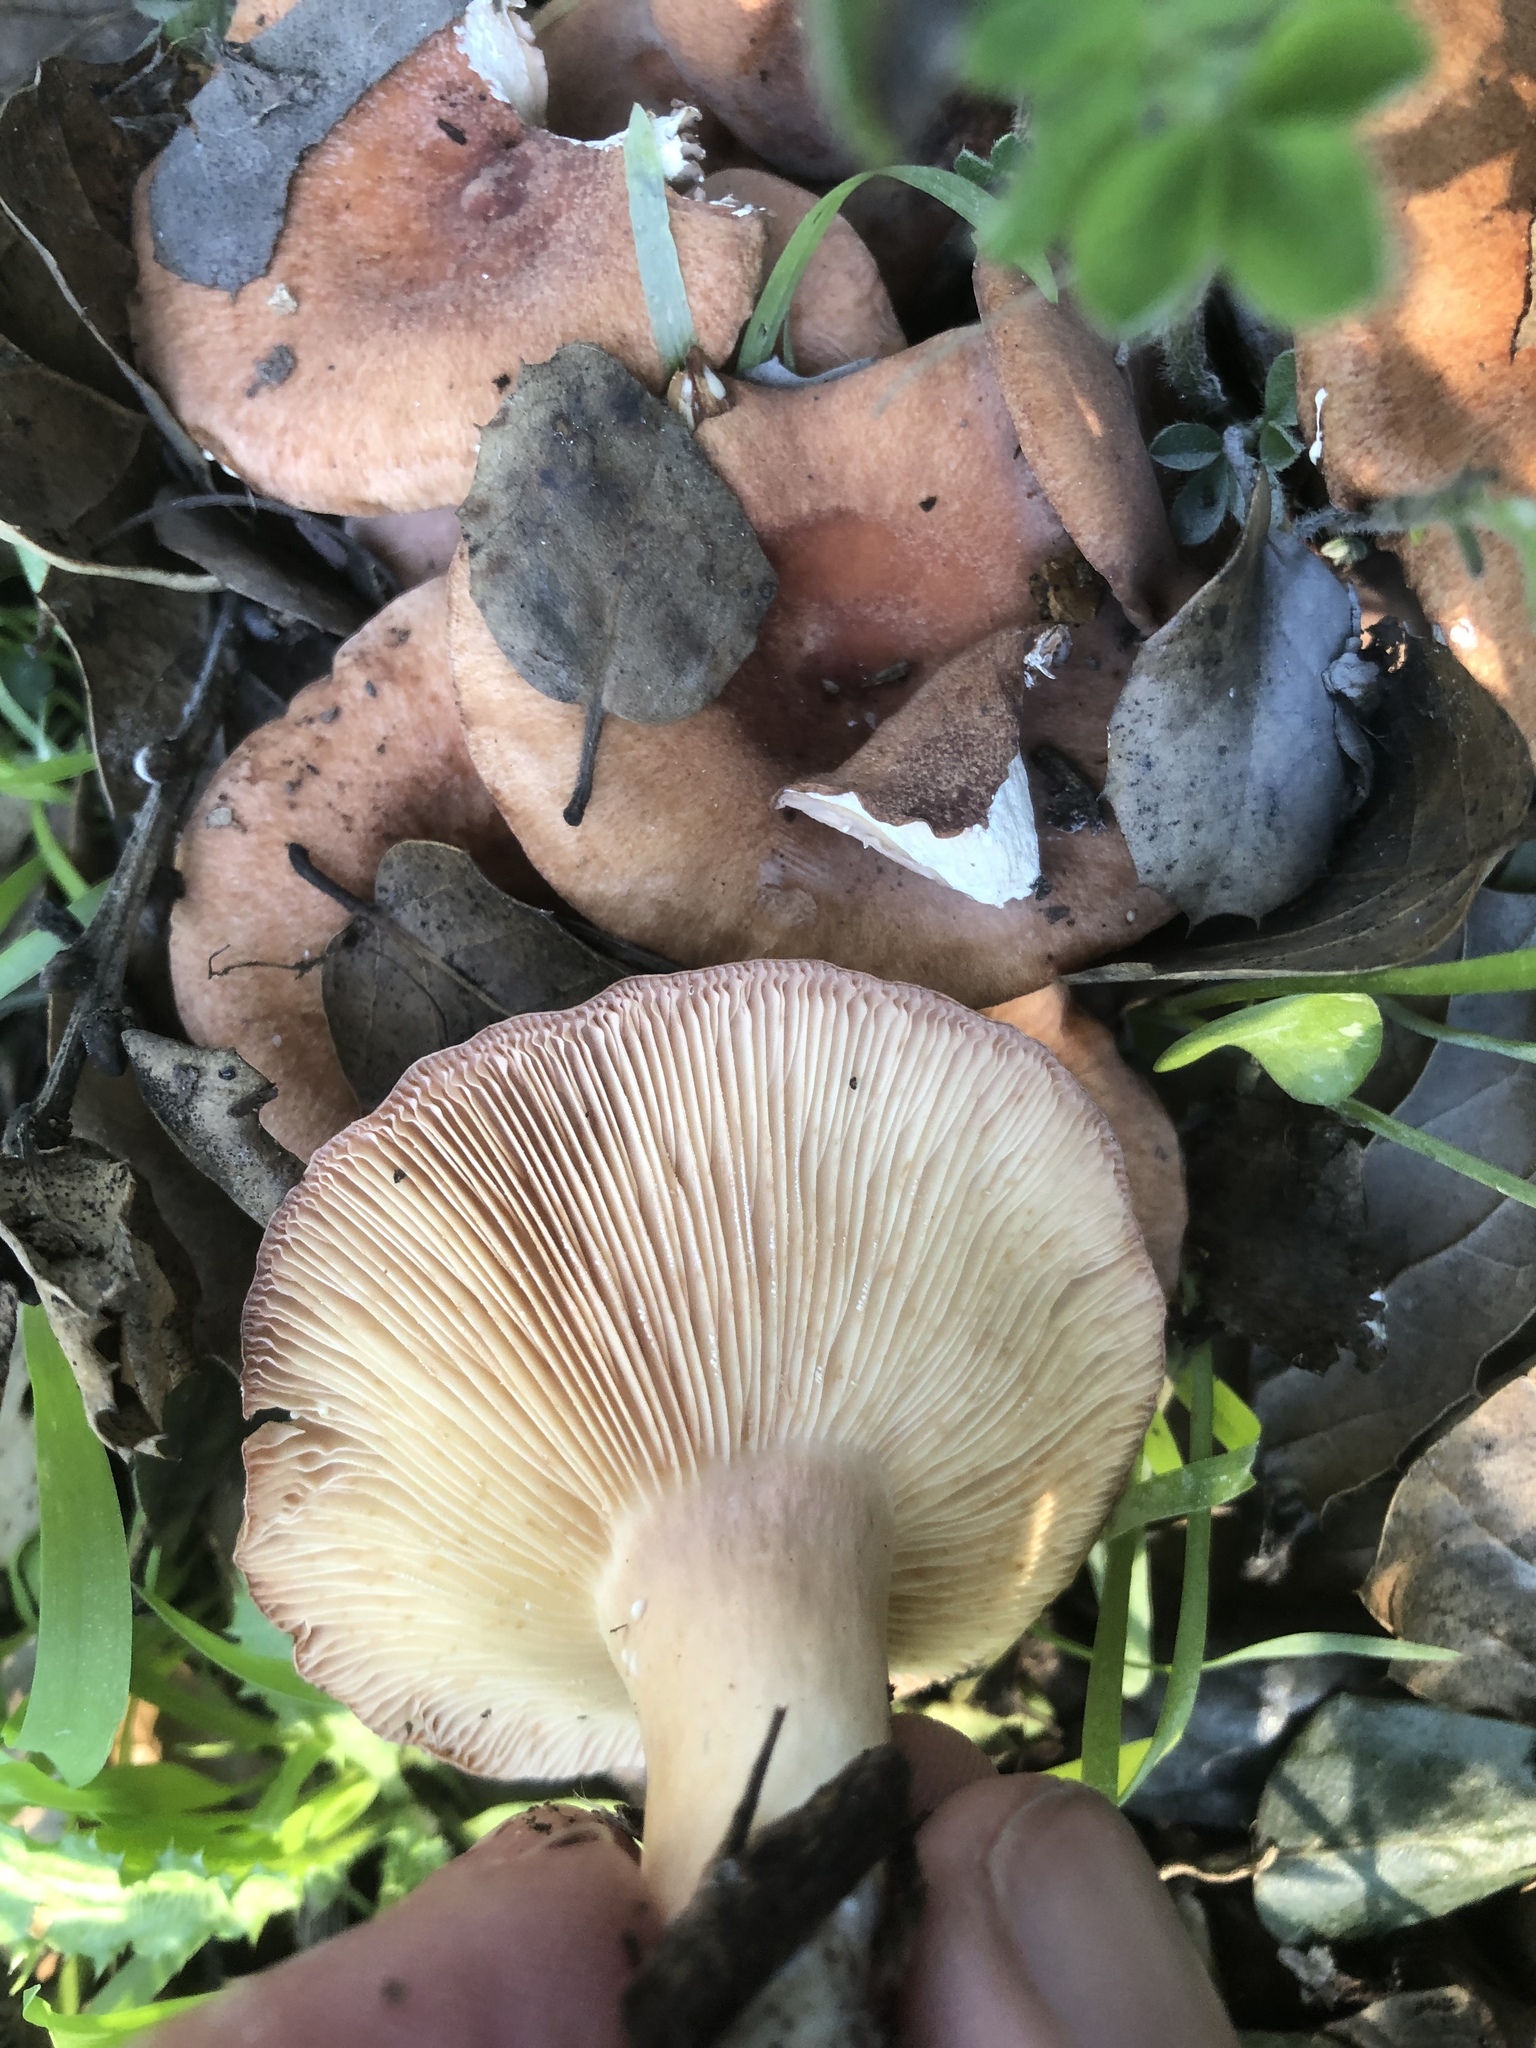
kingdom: Fungi
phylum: Basidiomycota
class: Agaricomycetes
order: Russulales
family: Russulaceae
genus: Lactarius
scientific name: Lactarius xanthogalactus
